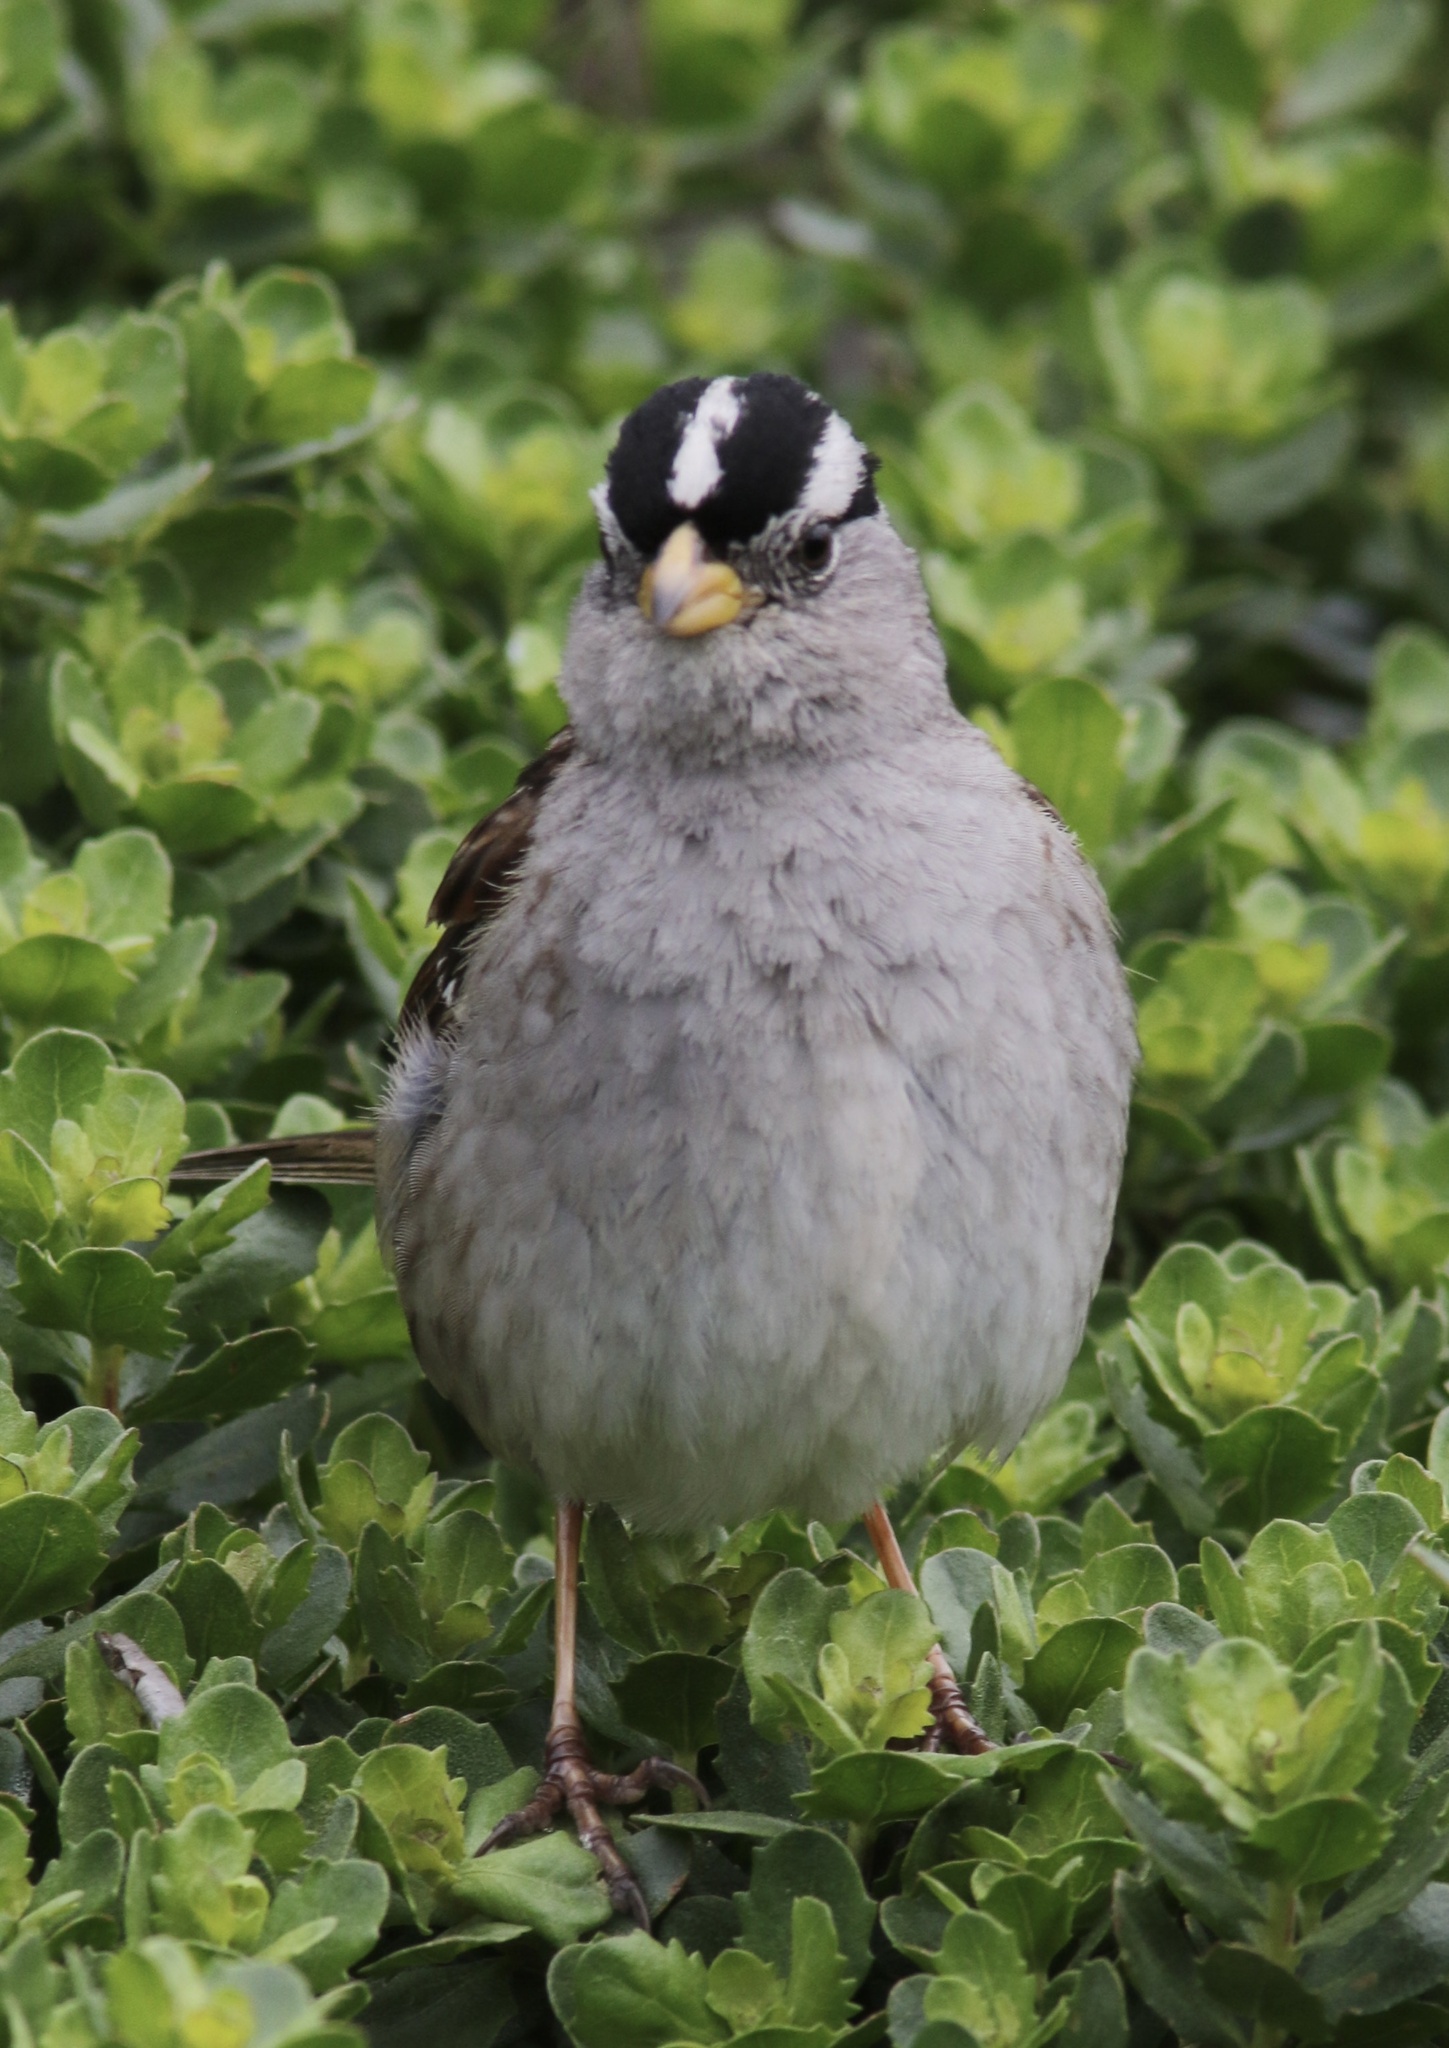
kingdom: Animalia
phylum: Chordata
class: Aves
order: Passeriformes
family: Passerellidae
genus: Zonotrichia
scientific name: Zonotrichia leucophrys
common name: White-crowned sparrow
